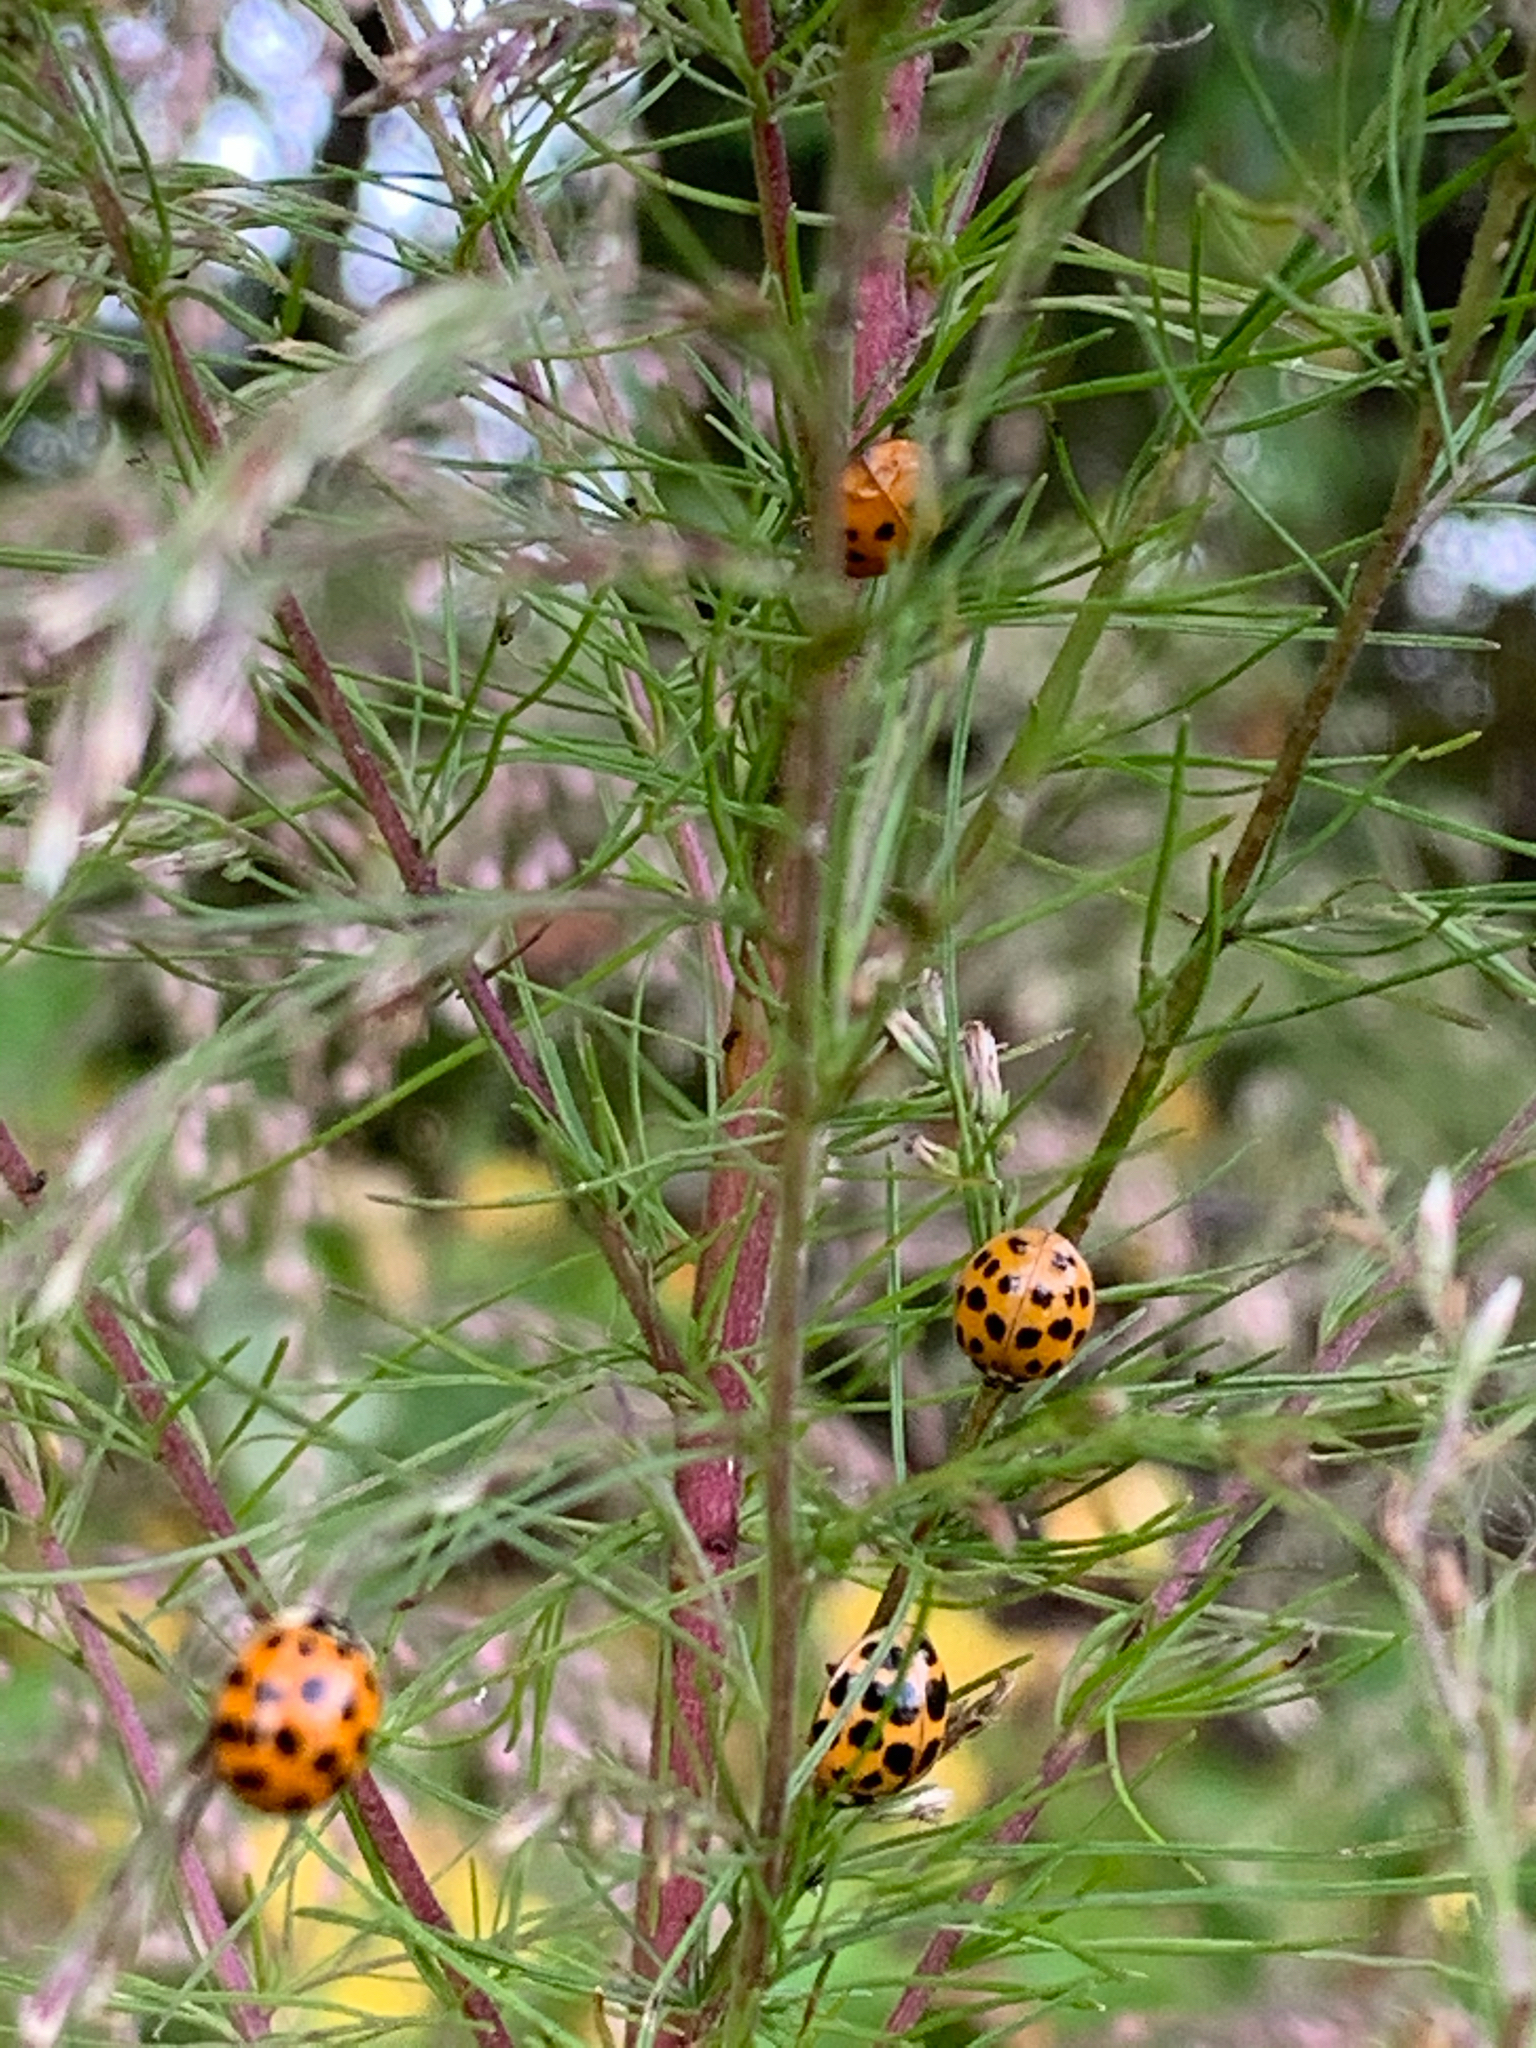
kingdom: Animalia
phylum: Arthropoda
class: Insecta
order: Coleoptera
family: Coccinellidae
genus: Harmonia
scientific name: Harmonia axyridis
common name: Harlequin ladybird
